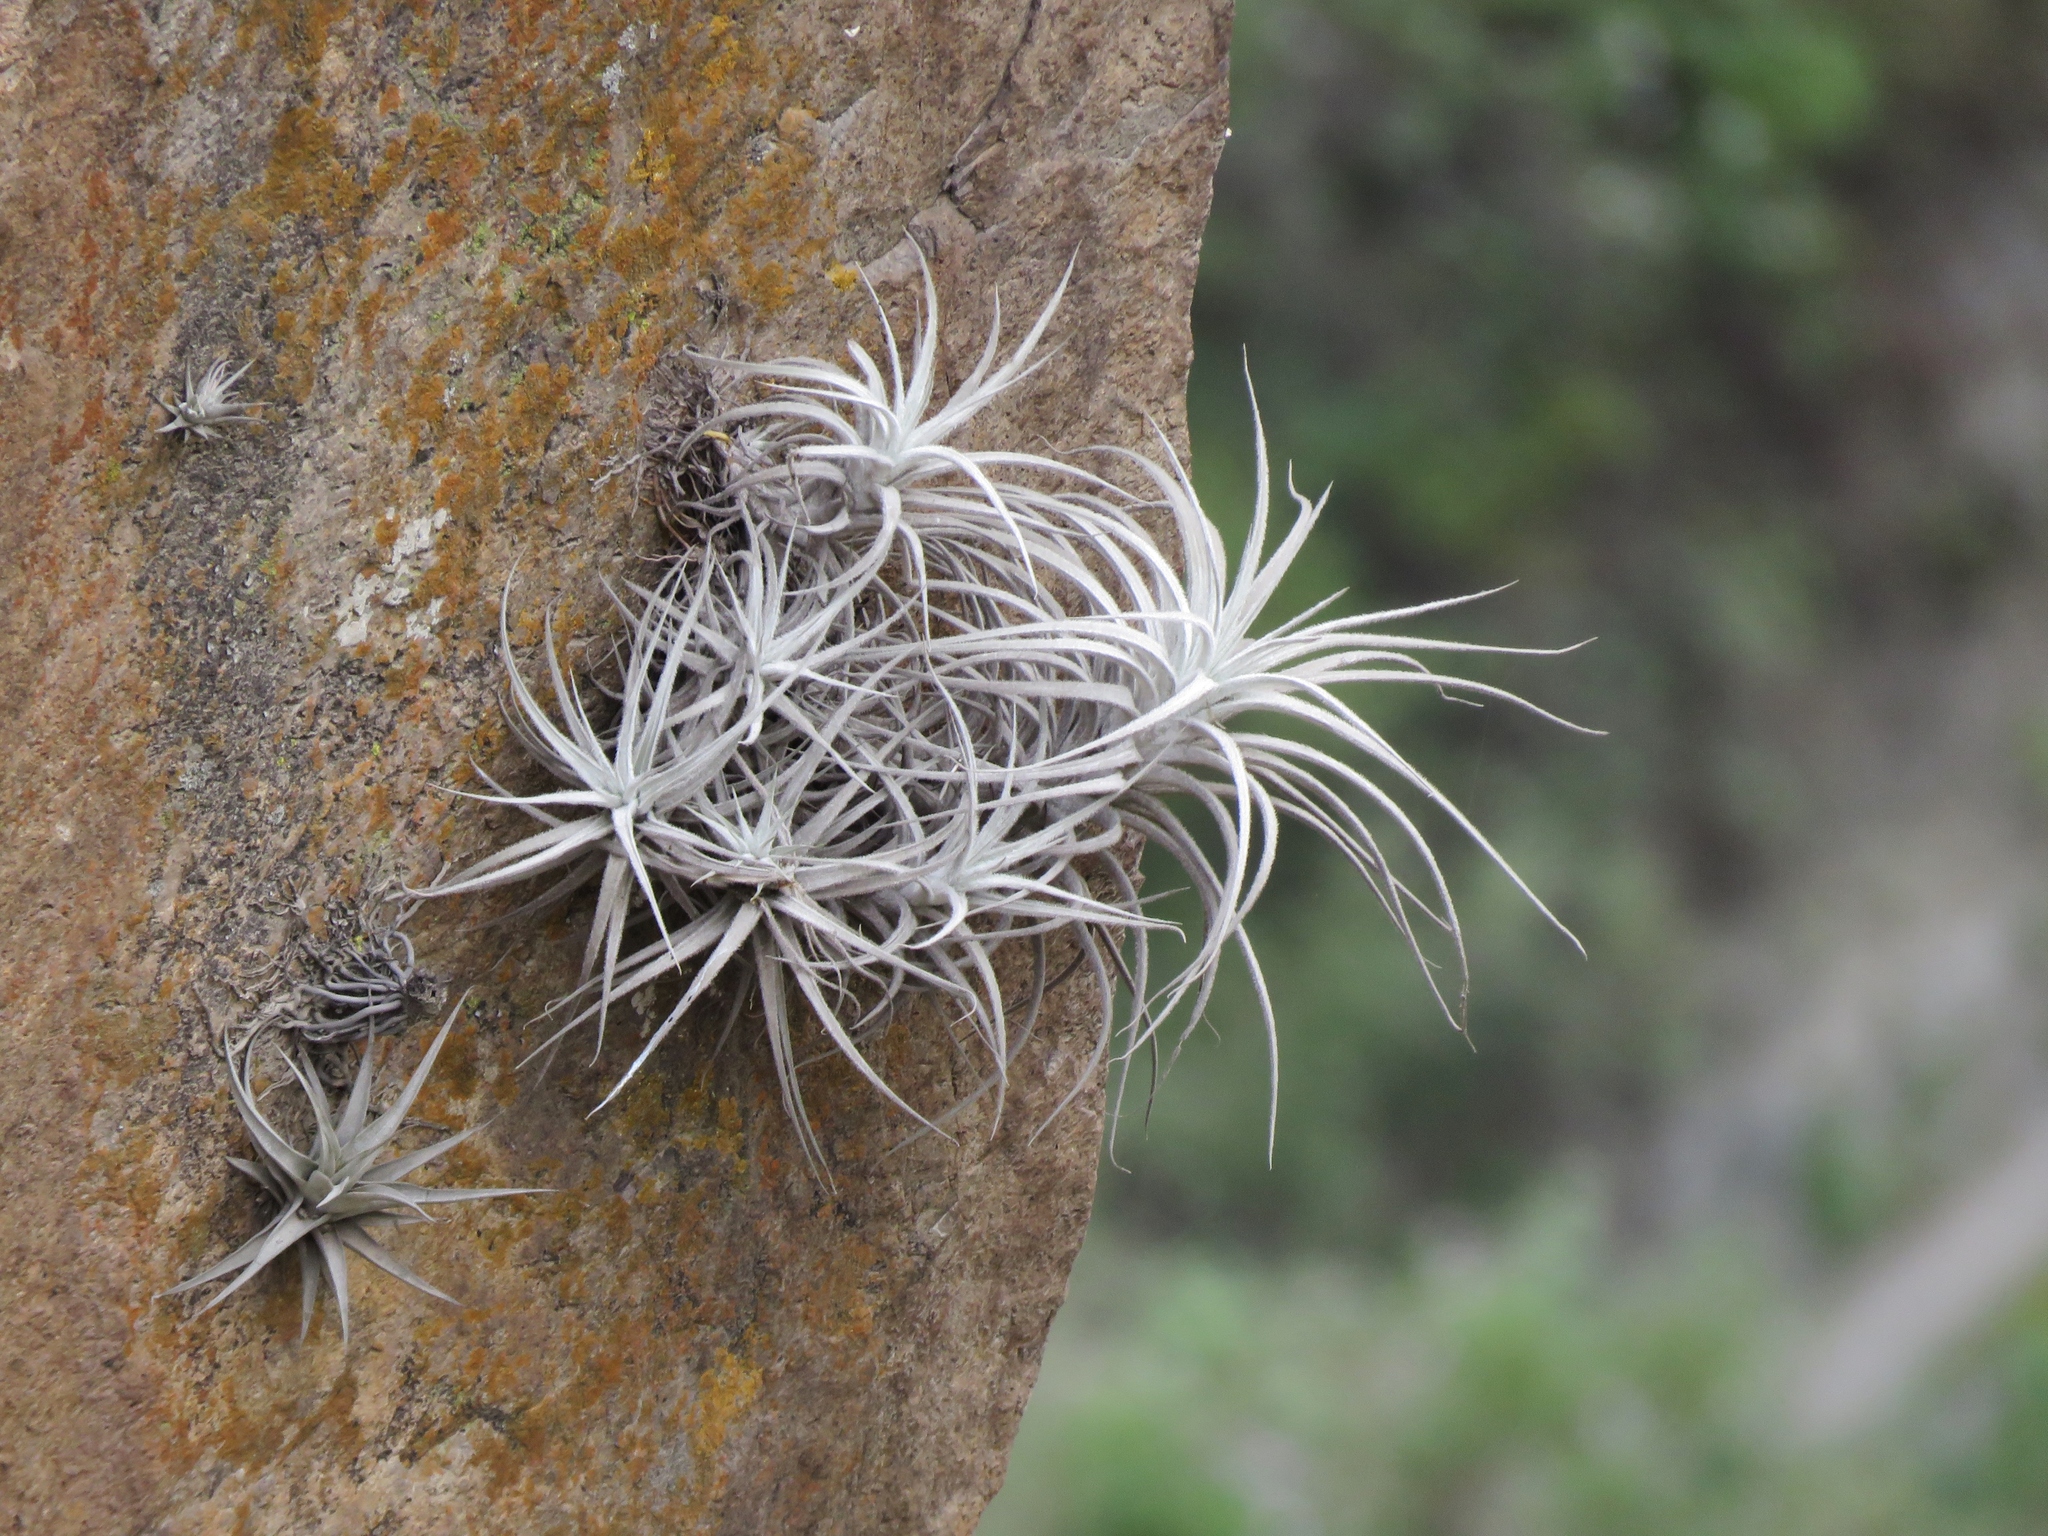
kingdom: Plantae
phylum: Tracheophyta
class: Liliopsida
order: Poales
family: Bromeliaceae
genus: Tillandsia
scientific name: Tillandsia tectorum
